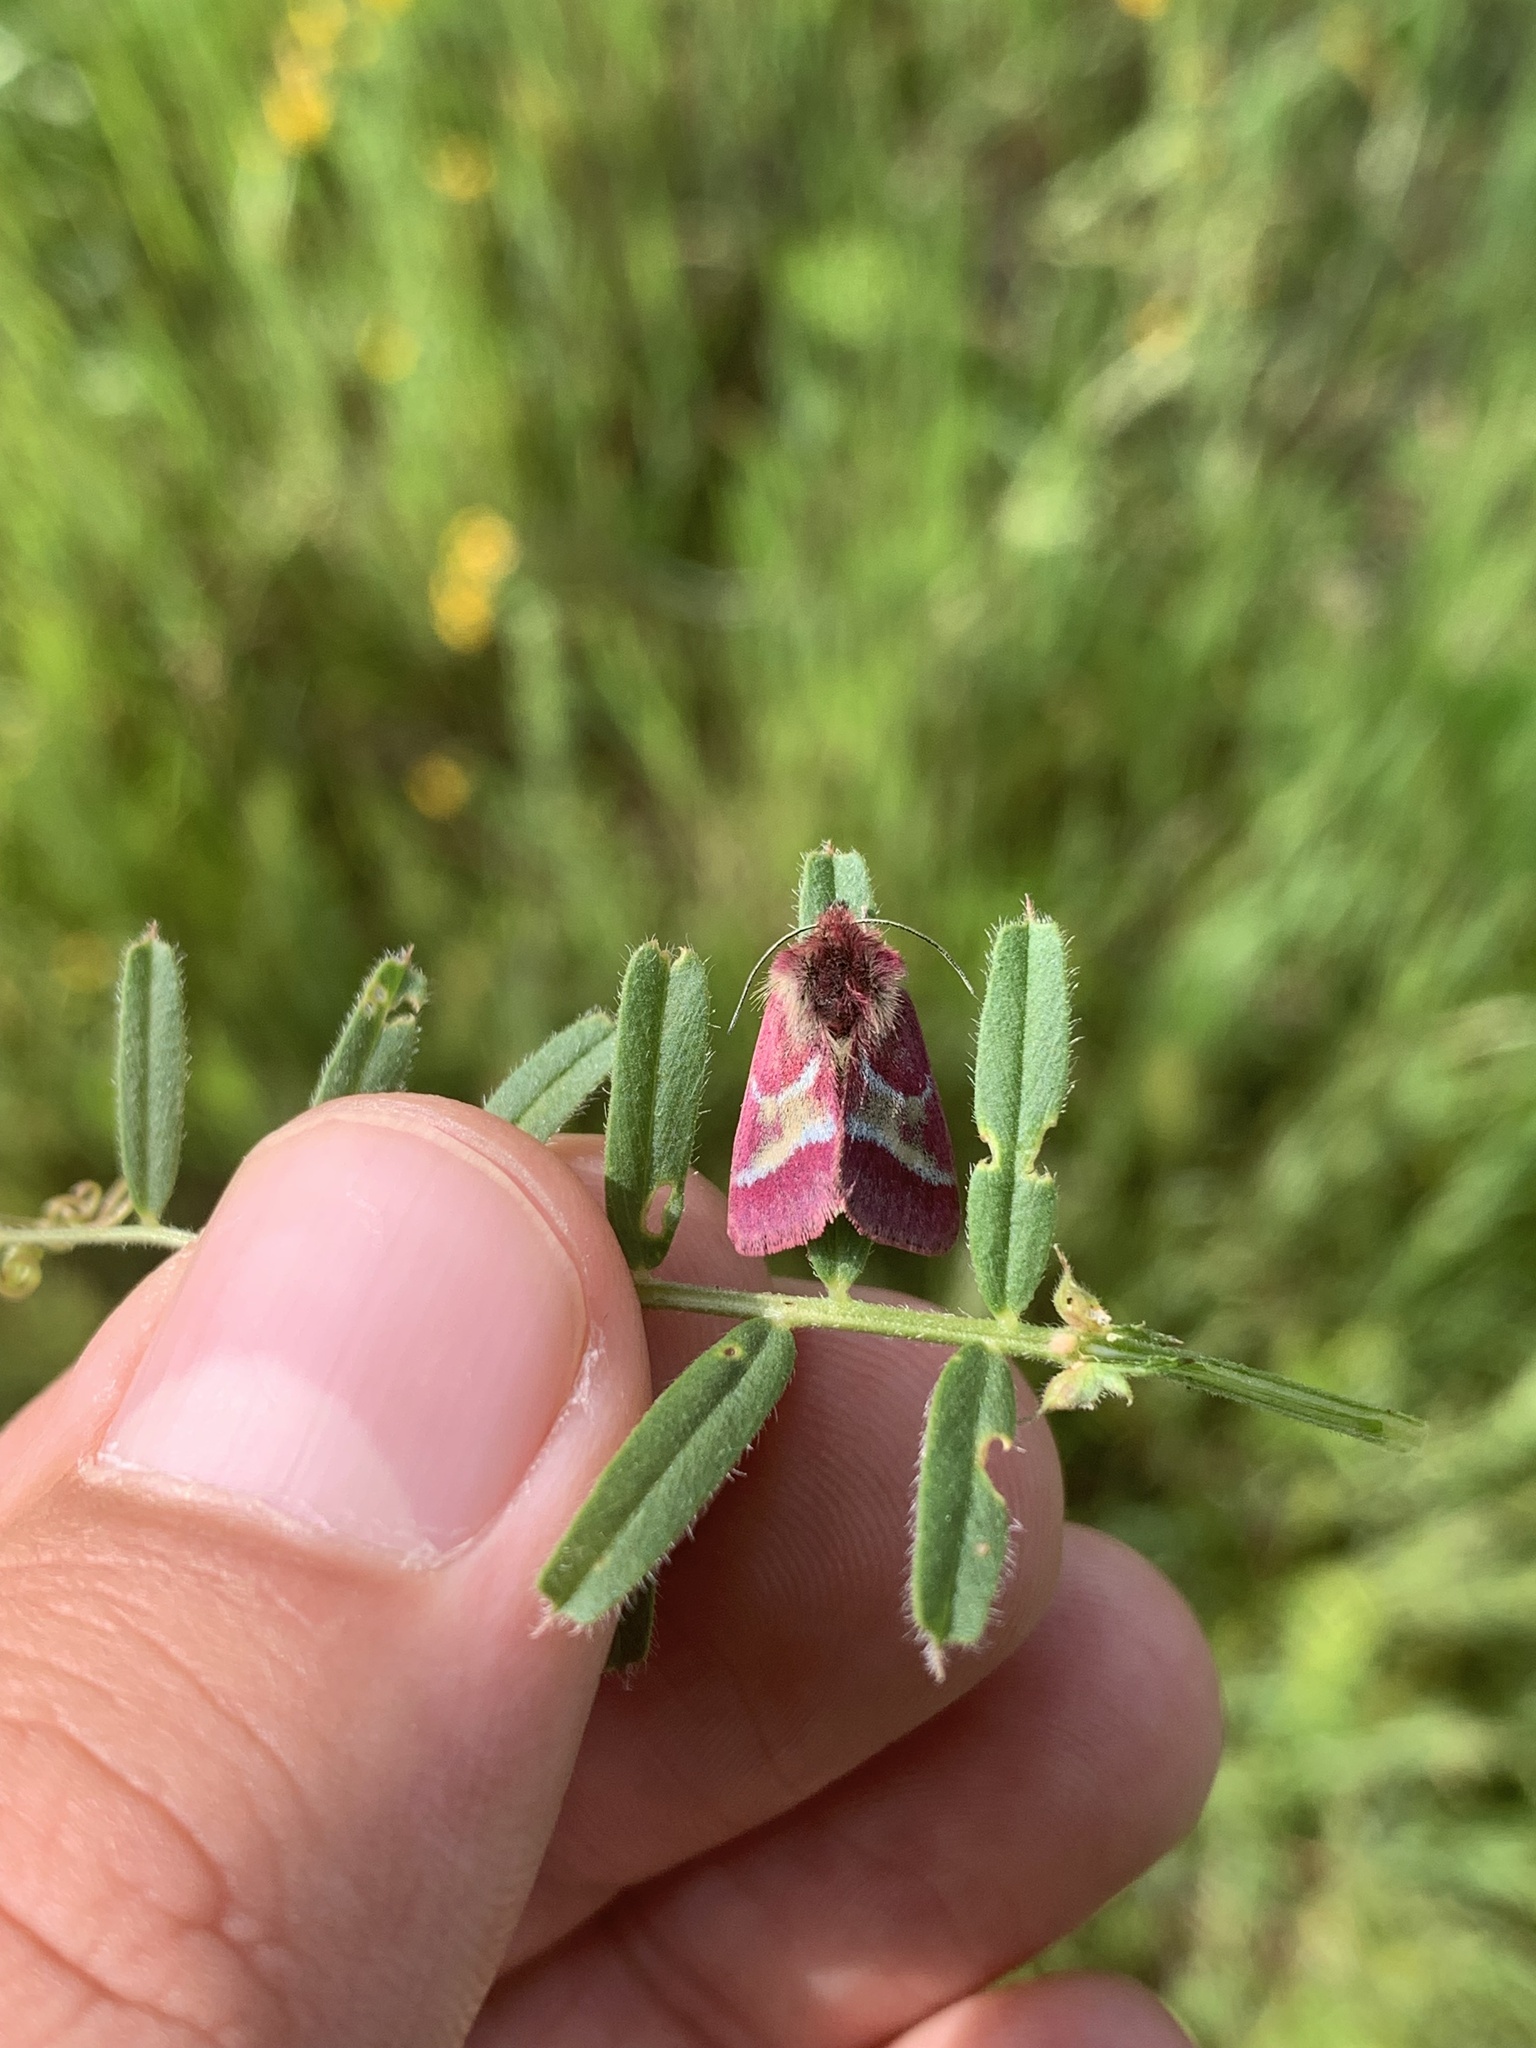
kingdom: Animalia
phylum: Arthropoda
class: Insecta
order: Lepidoptera
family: Noctuidae
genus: Schinia
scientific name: Schinia pulchripennis
